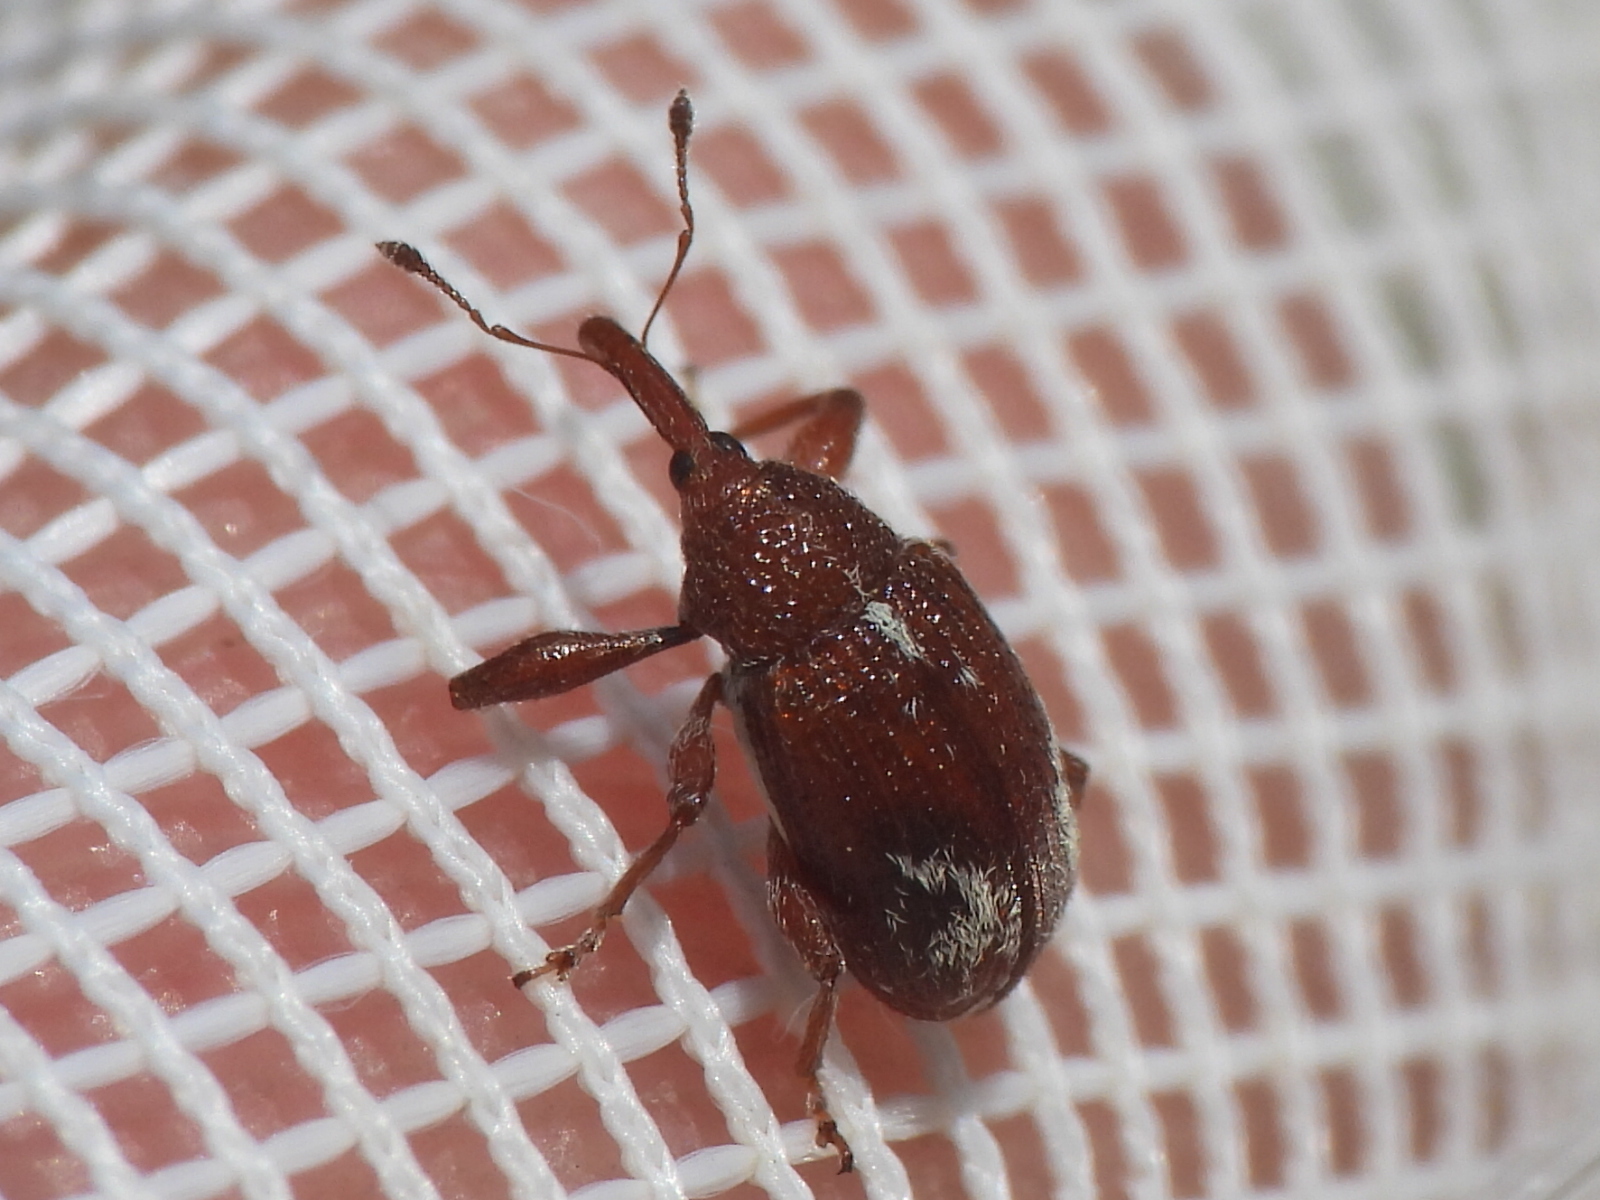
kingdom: Animalia
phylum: Arthropoda
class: Insecta
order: Coleoptera
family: Curculionidae
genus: Anthonomus
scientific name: Anthonomus fulvus
